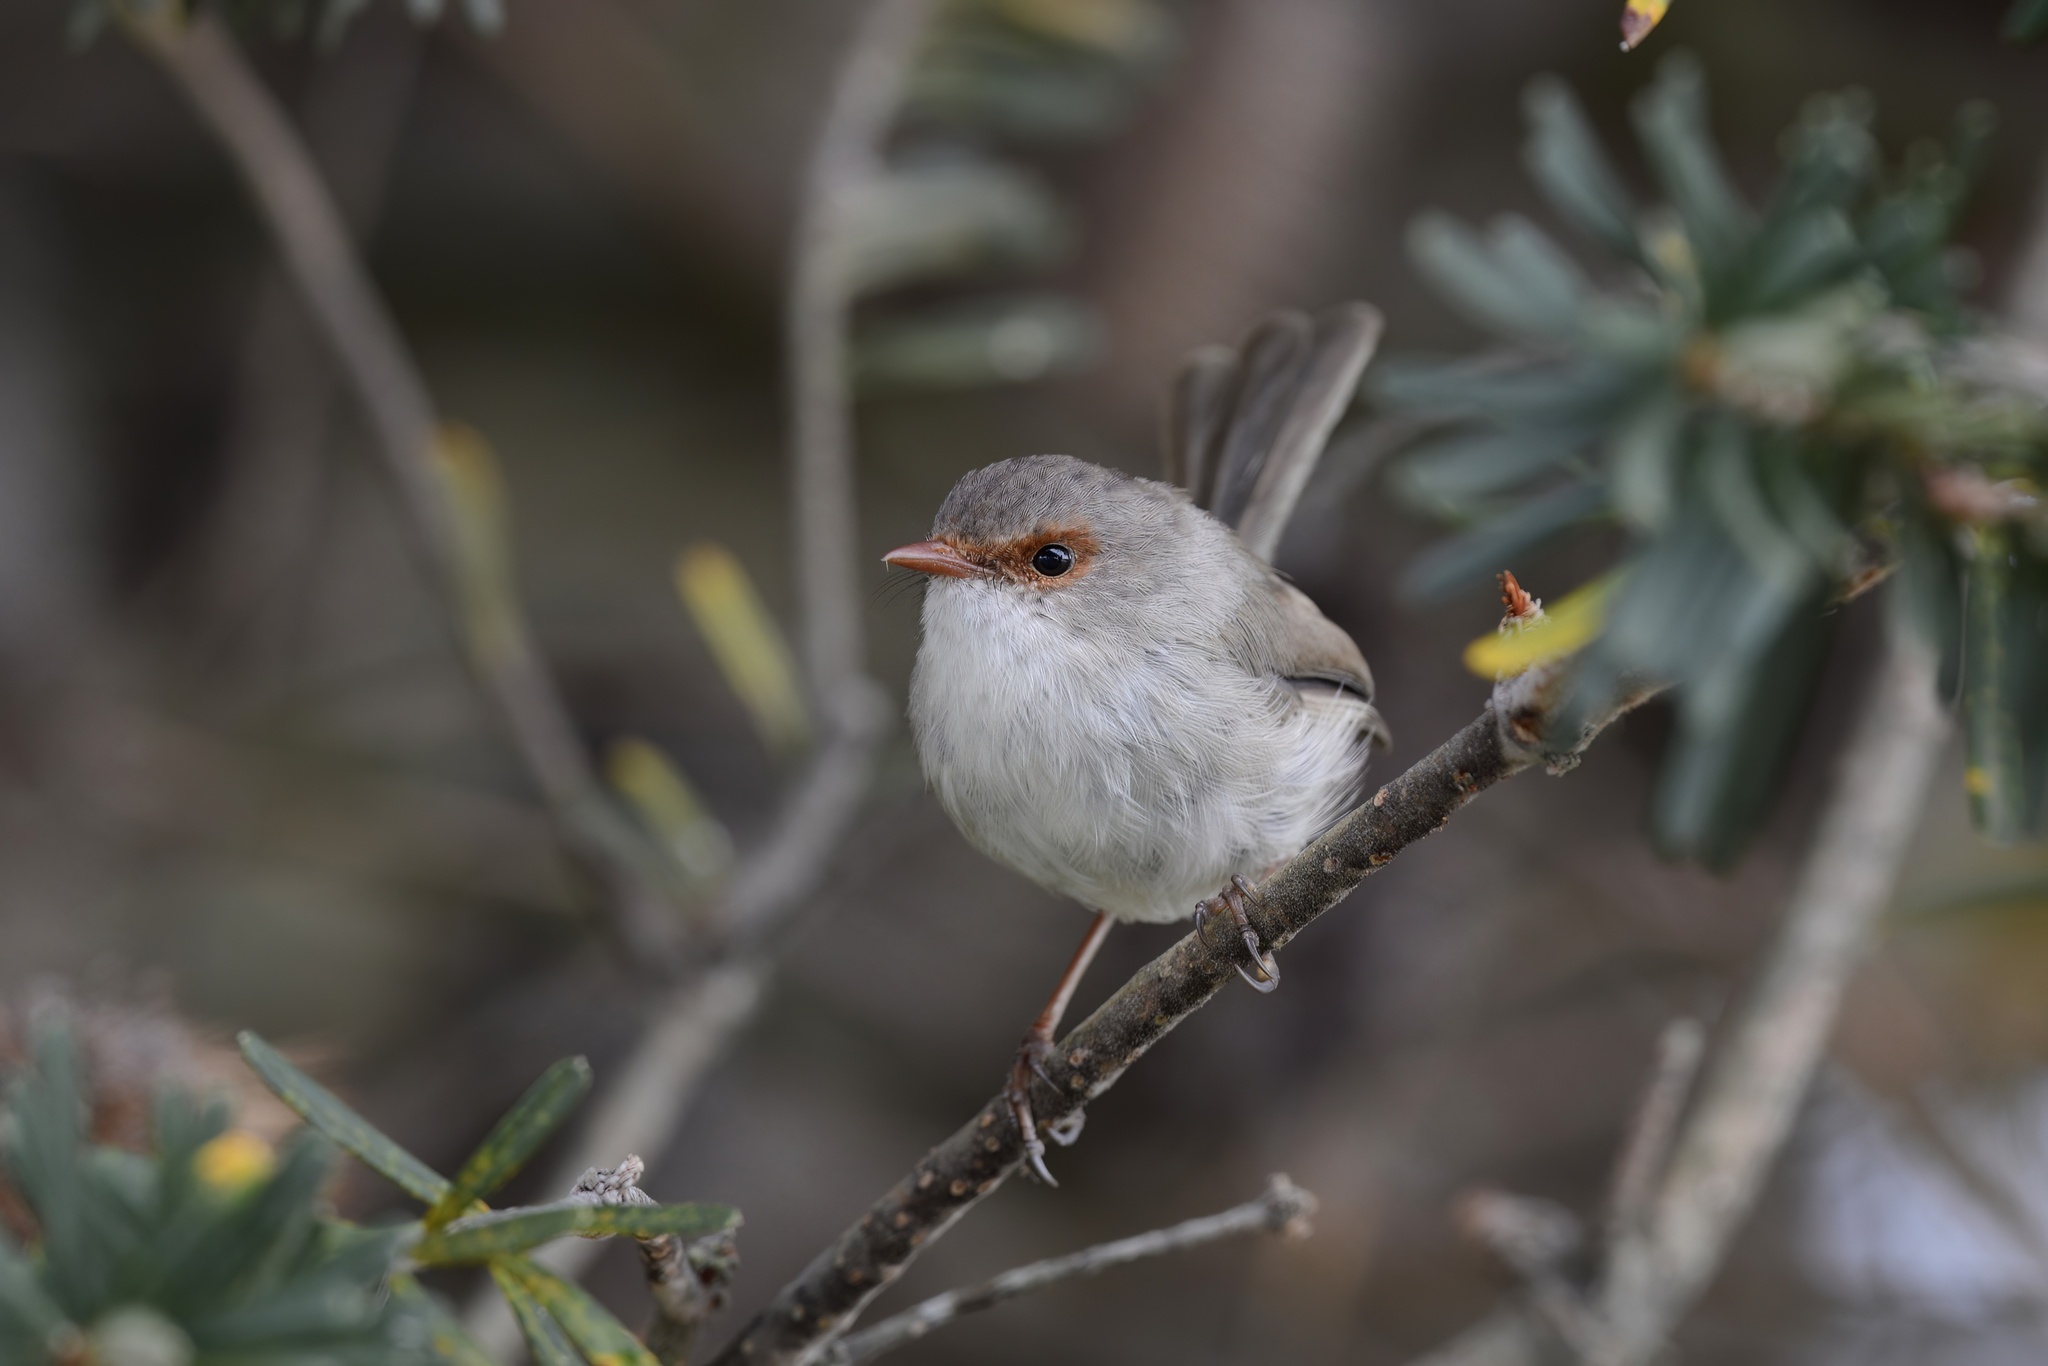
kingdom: Animalia
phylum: Chordata
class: Aves
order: Passeriformes
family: Maluridae
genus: Malurus
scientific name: Malurus cyaneus
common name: Superb fairywren
